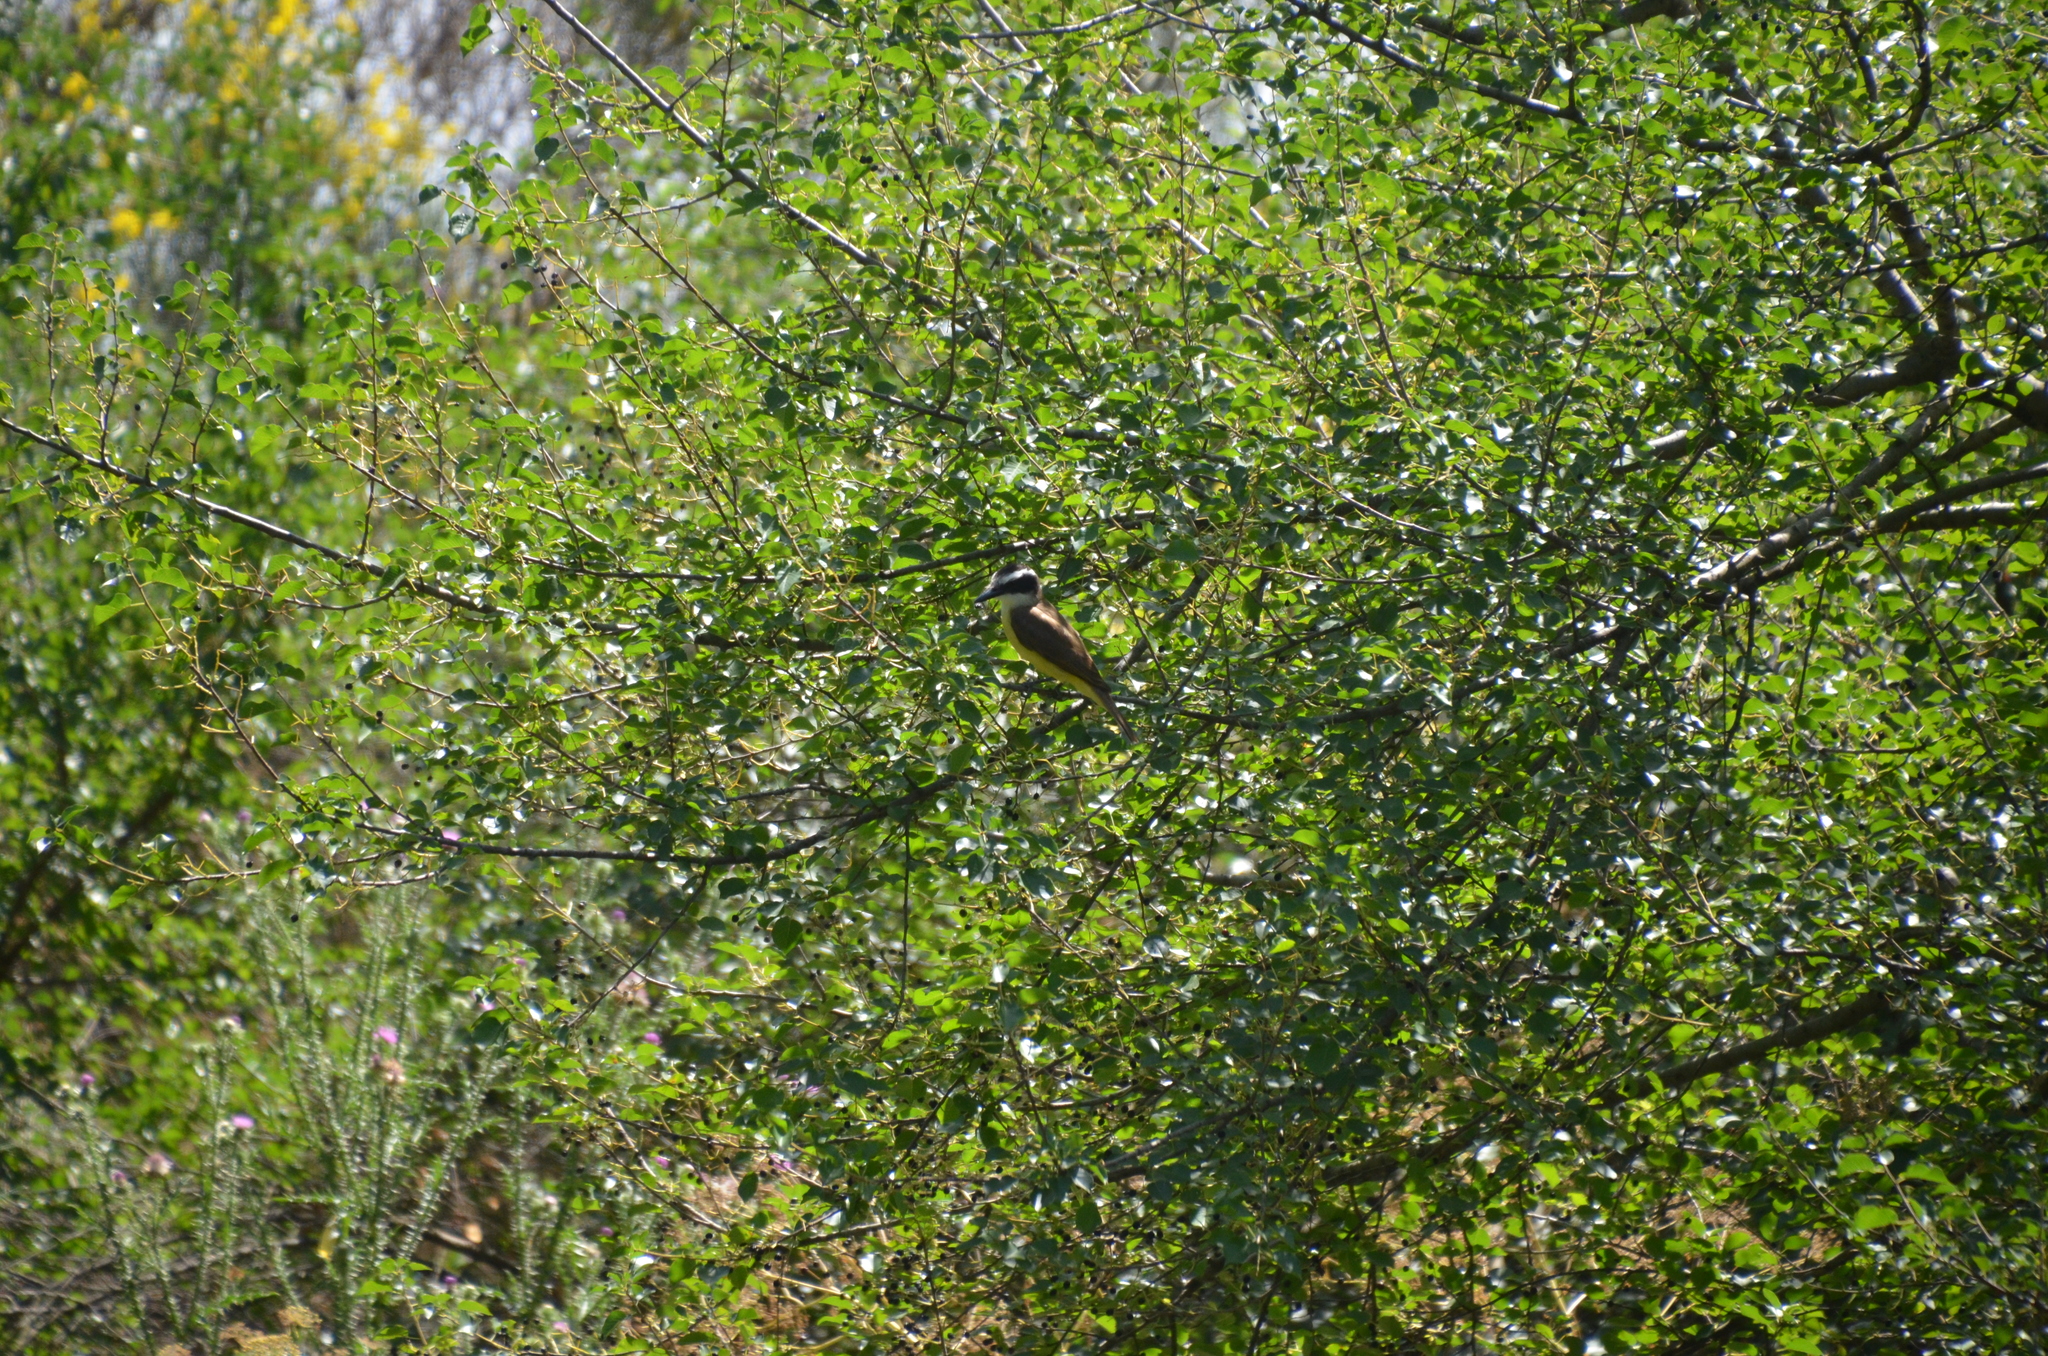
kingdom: Animalia
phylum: Chordata
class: Aves
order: Passeriformes
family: Tyrannidae
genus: Pitangus
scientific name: Pitangus sulphuratus
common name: Great kiskadee
